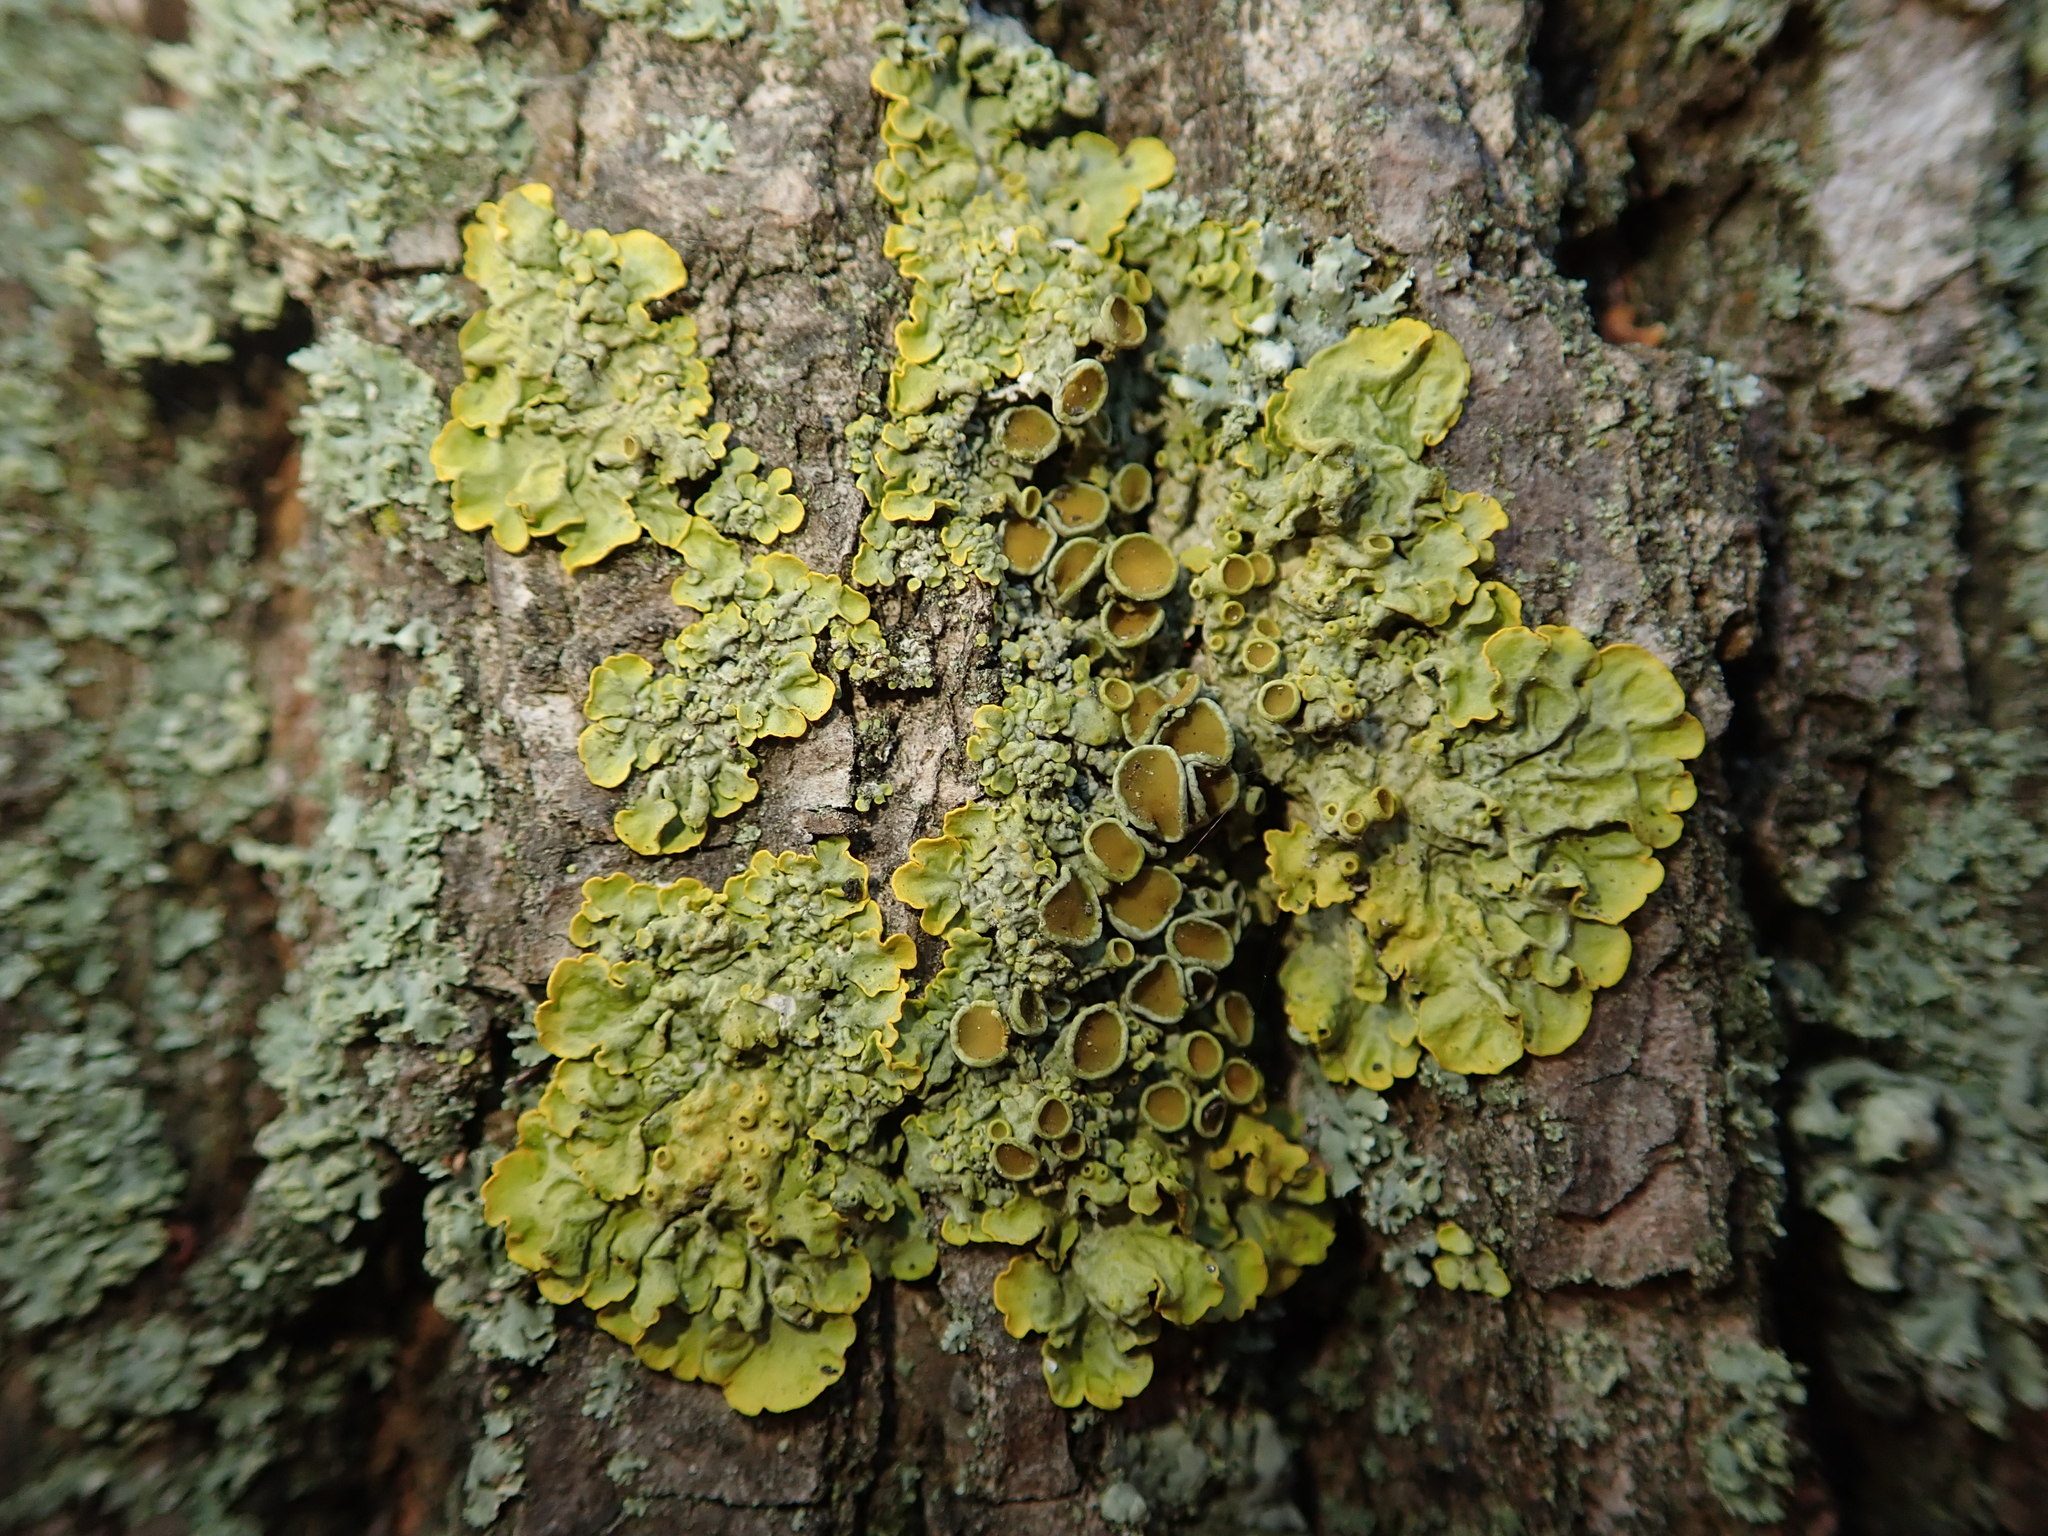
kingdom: Fungi
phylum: Ascomycota
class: Lecanoromycetes
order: Teloschistales
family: Teloschistaceae
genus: Xanthoria
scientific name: Xanthoria parietina
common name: Common orange lichen
